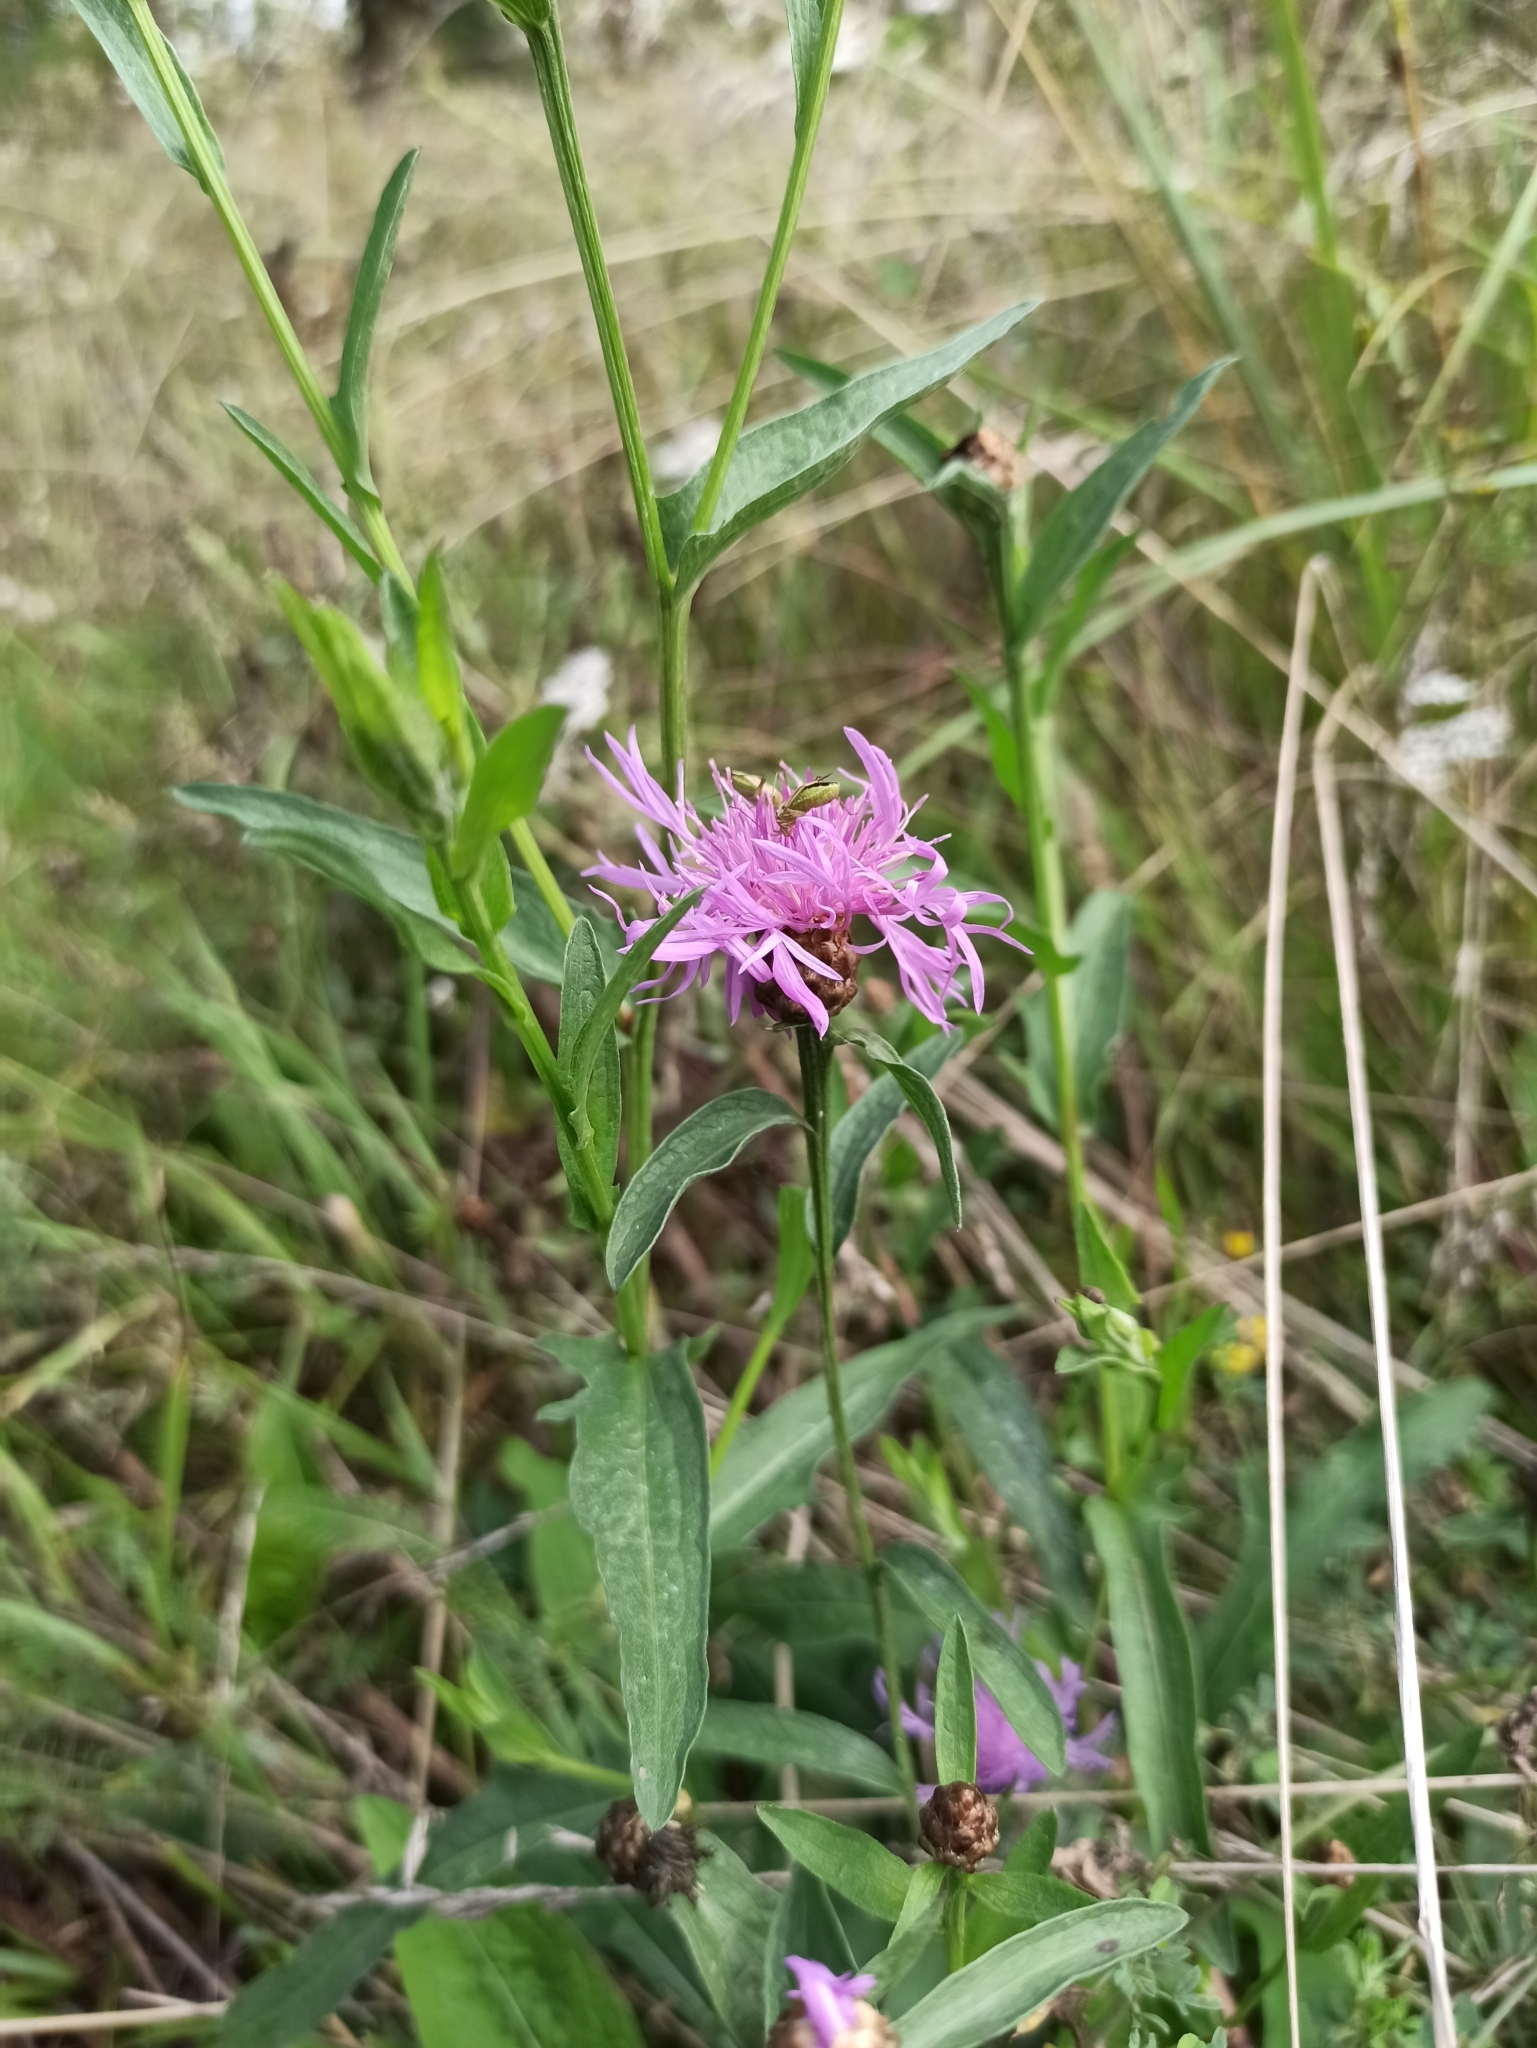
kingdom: Plantae
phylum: Tracheophyta
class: Magnoliopsida
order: Asterales
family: Asteraceae
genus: Centaurea
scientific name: Centaurea jacea
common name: Brown knapweed
